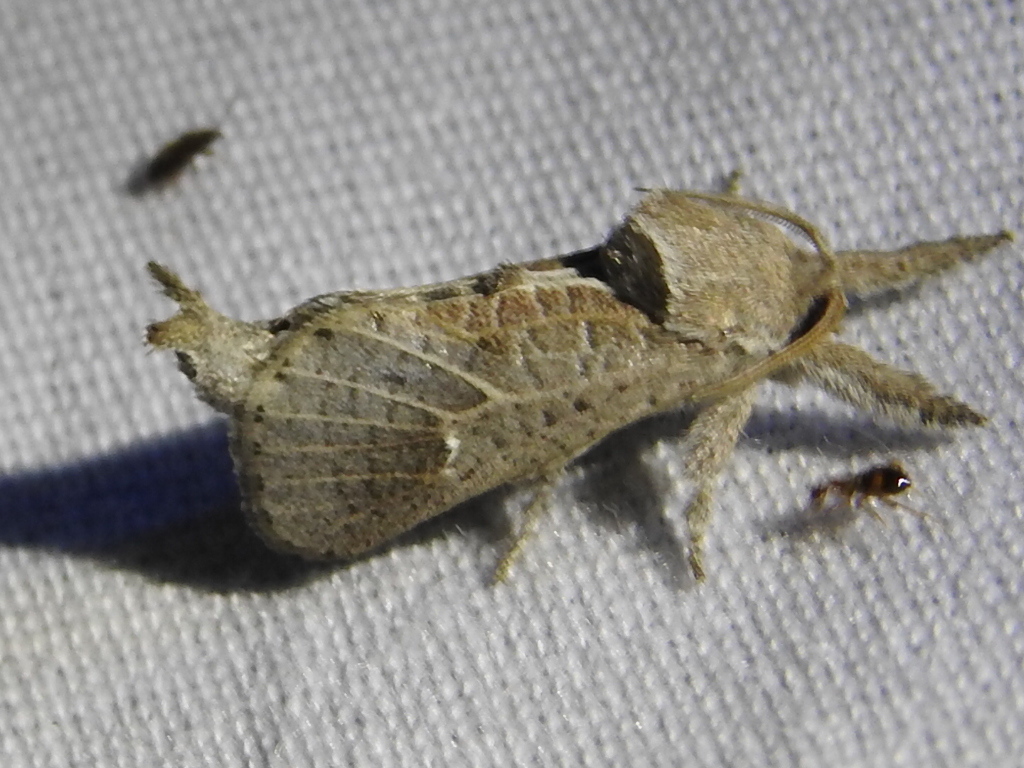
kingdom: Animalia
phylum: Arthropoda
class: Insecta
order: Lepidoptera
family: Cossidae
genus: Givira
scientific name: Givira anna
